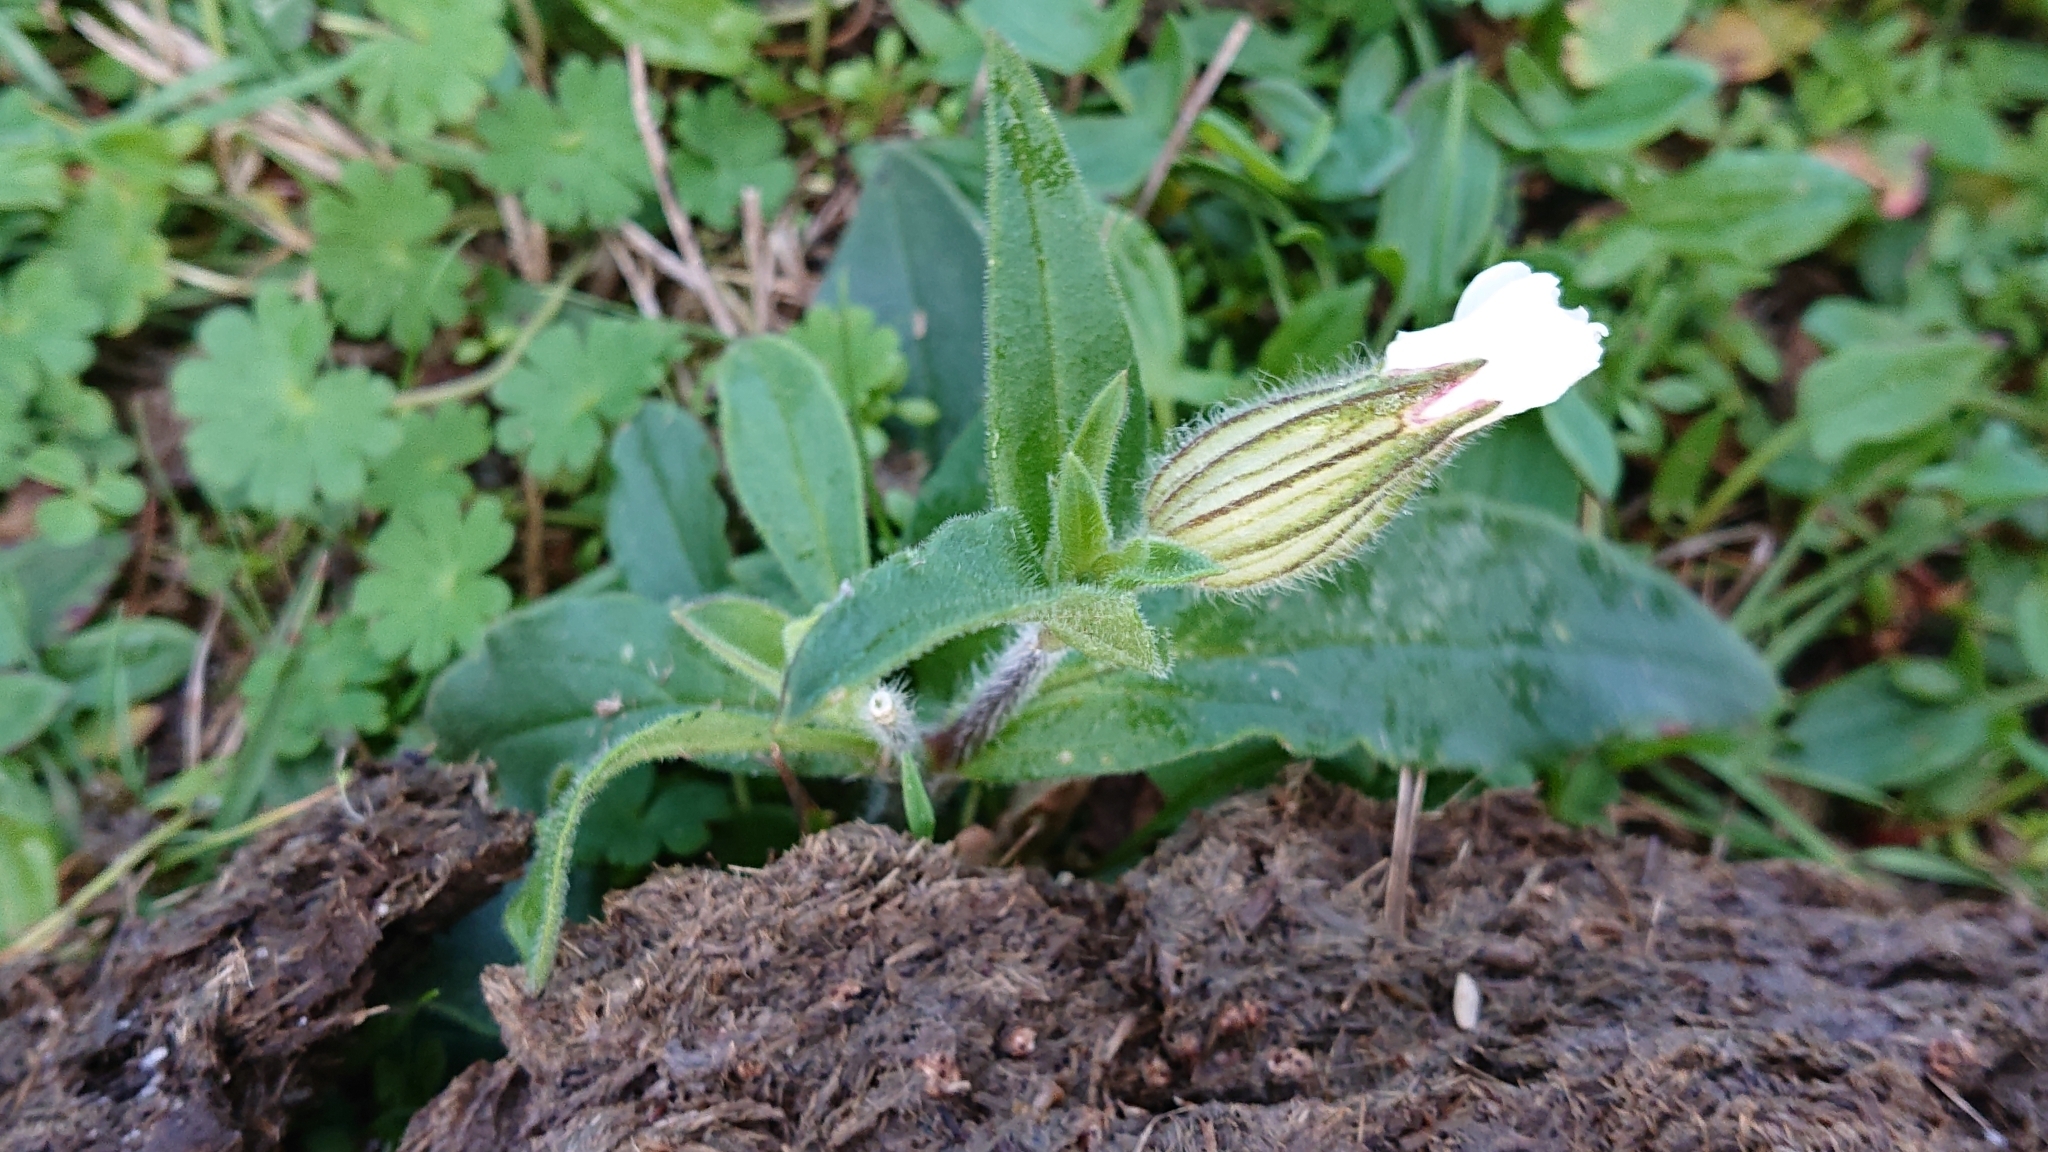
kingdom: Plantae
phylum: Tracheophyta
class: Magnoliopsida
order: Caryophyllales
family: Caryophyllaceae
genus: Silene
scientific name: Silene latifolia
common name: White campion
